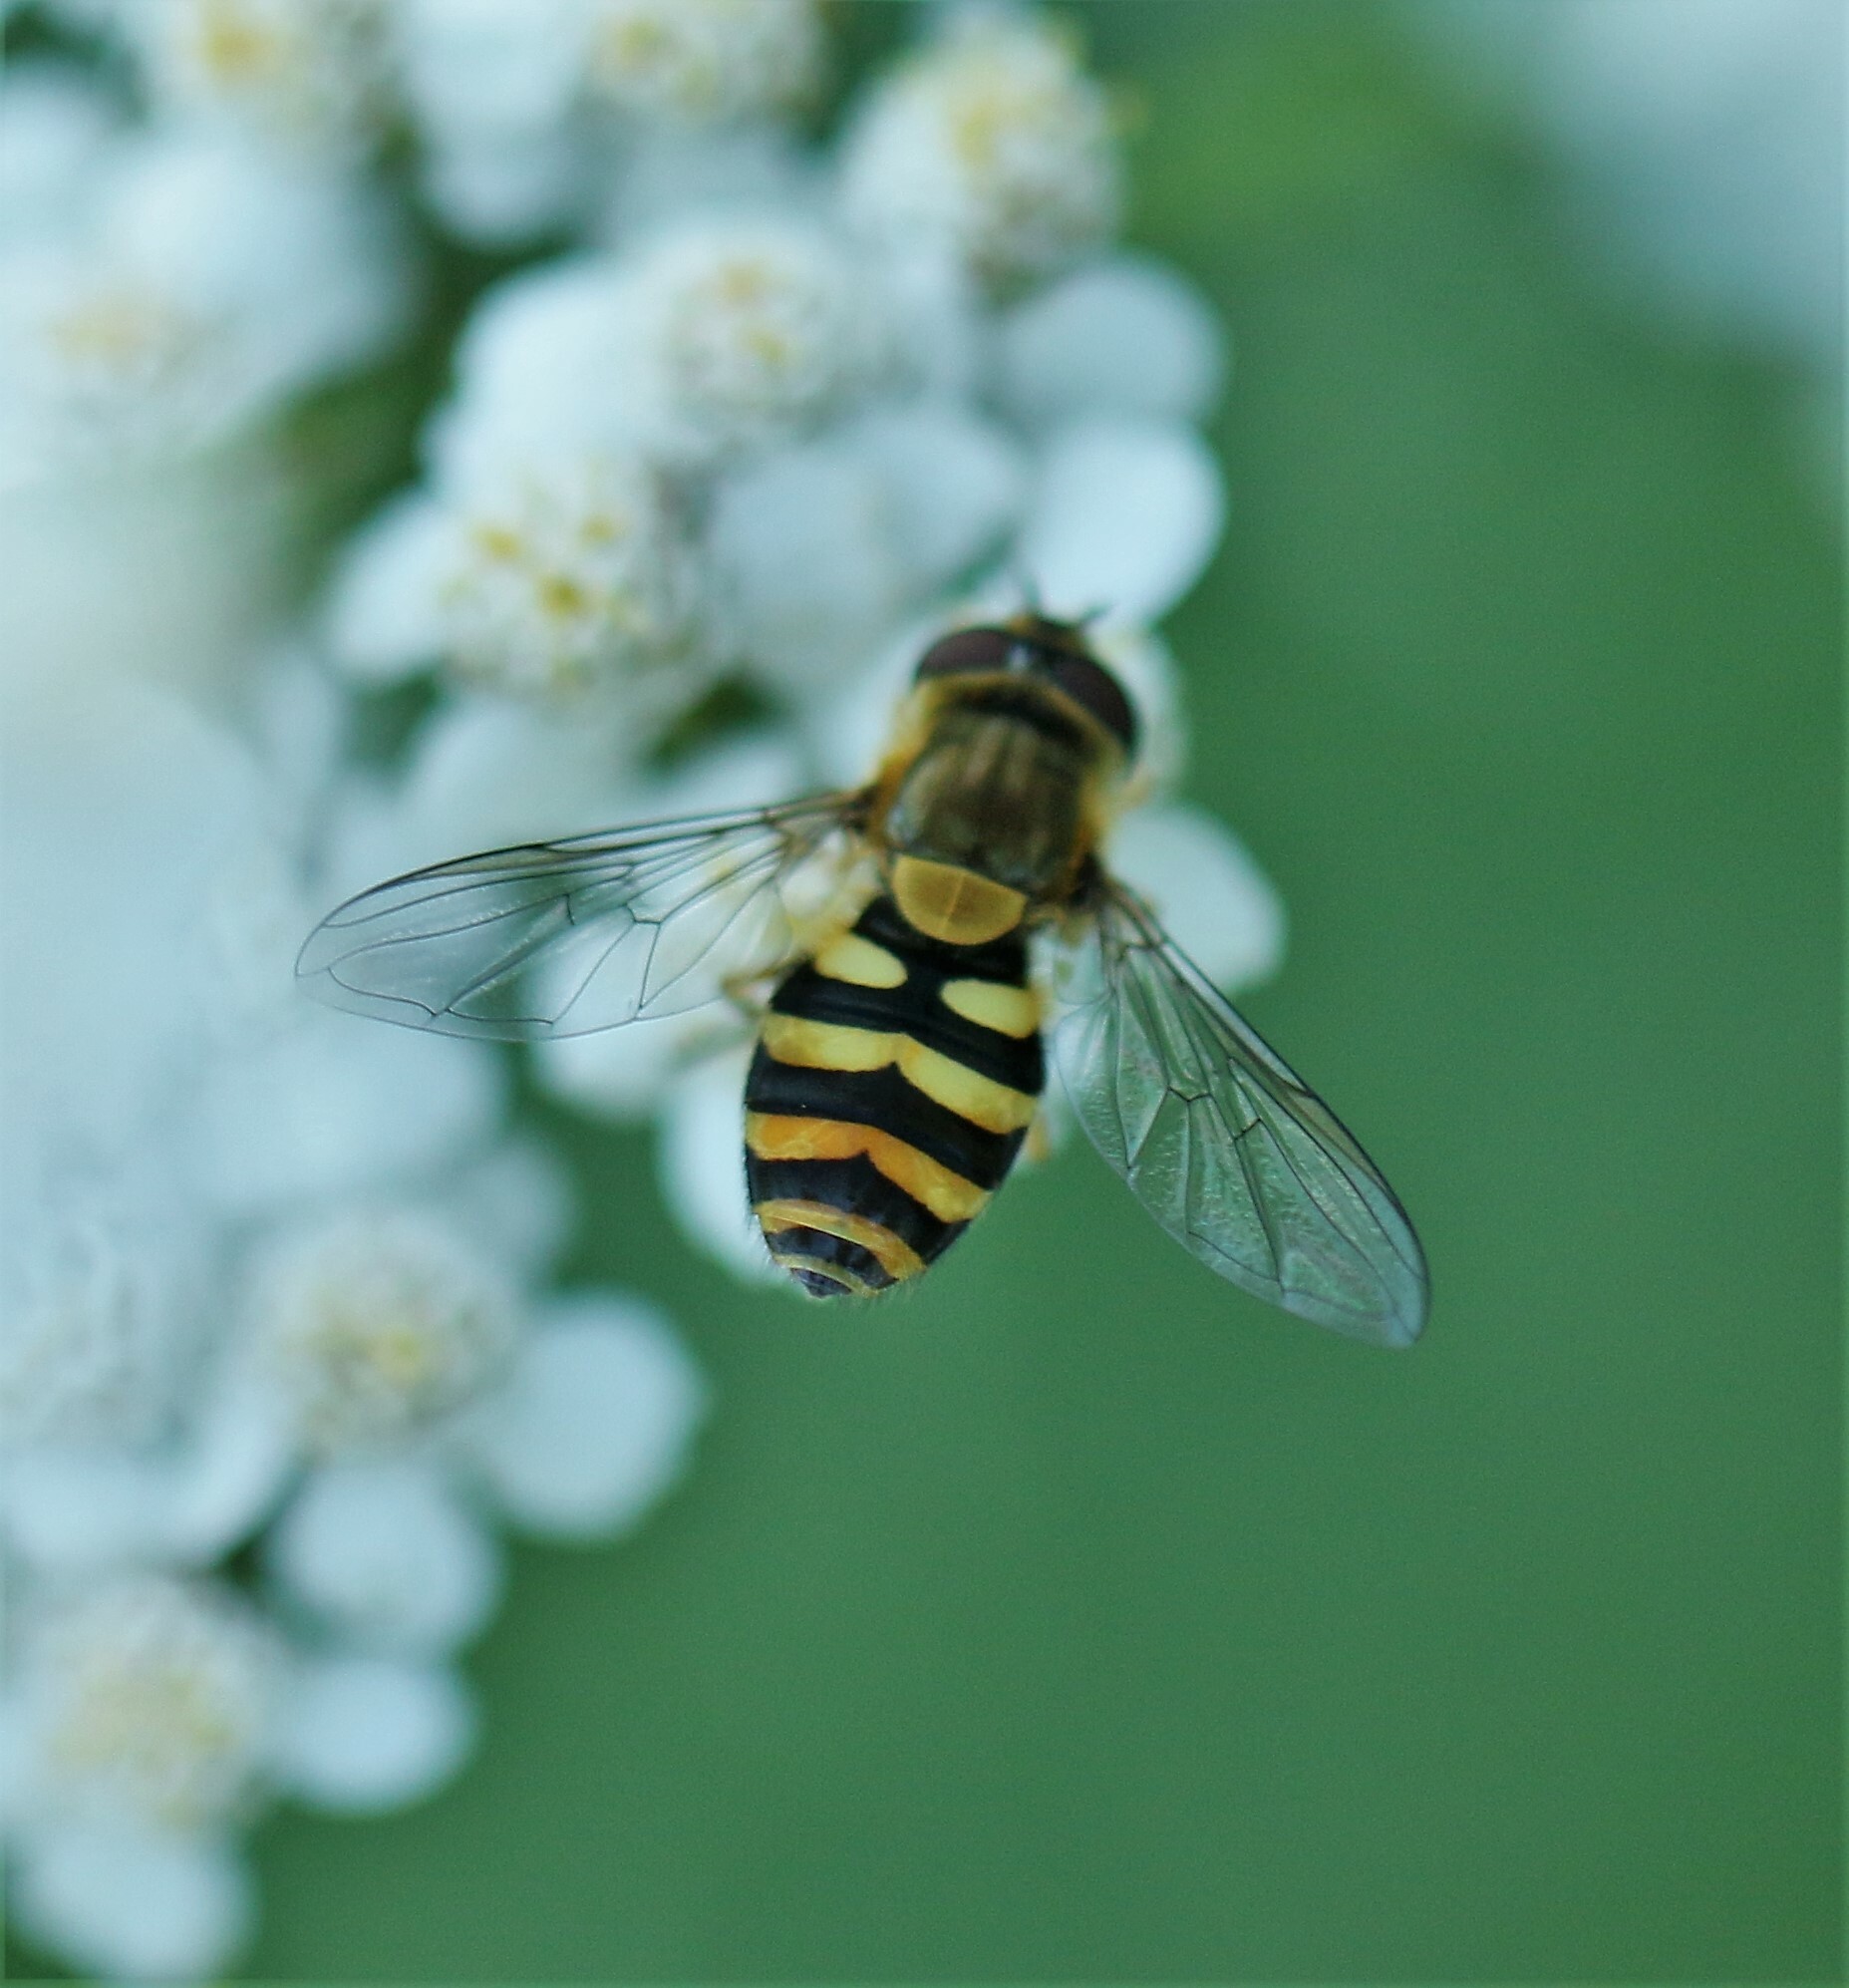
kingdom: Animalia
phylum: Arthropoda
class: Insecta
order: Diptera
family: Syrphidae
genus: Syrphus
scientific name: Syrphus
